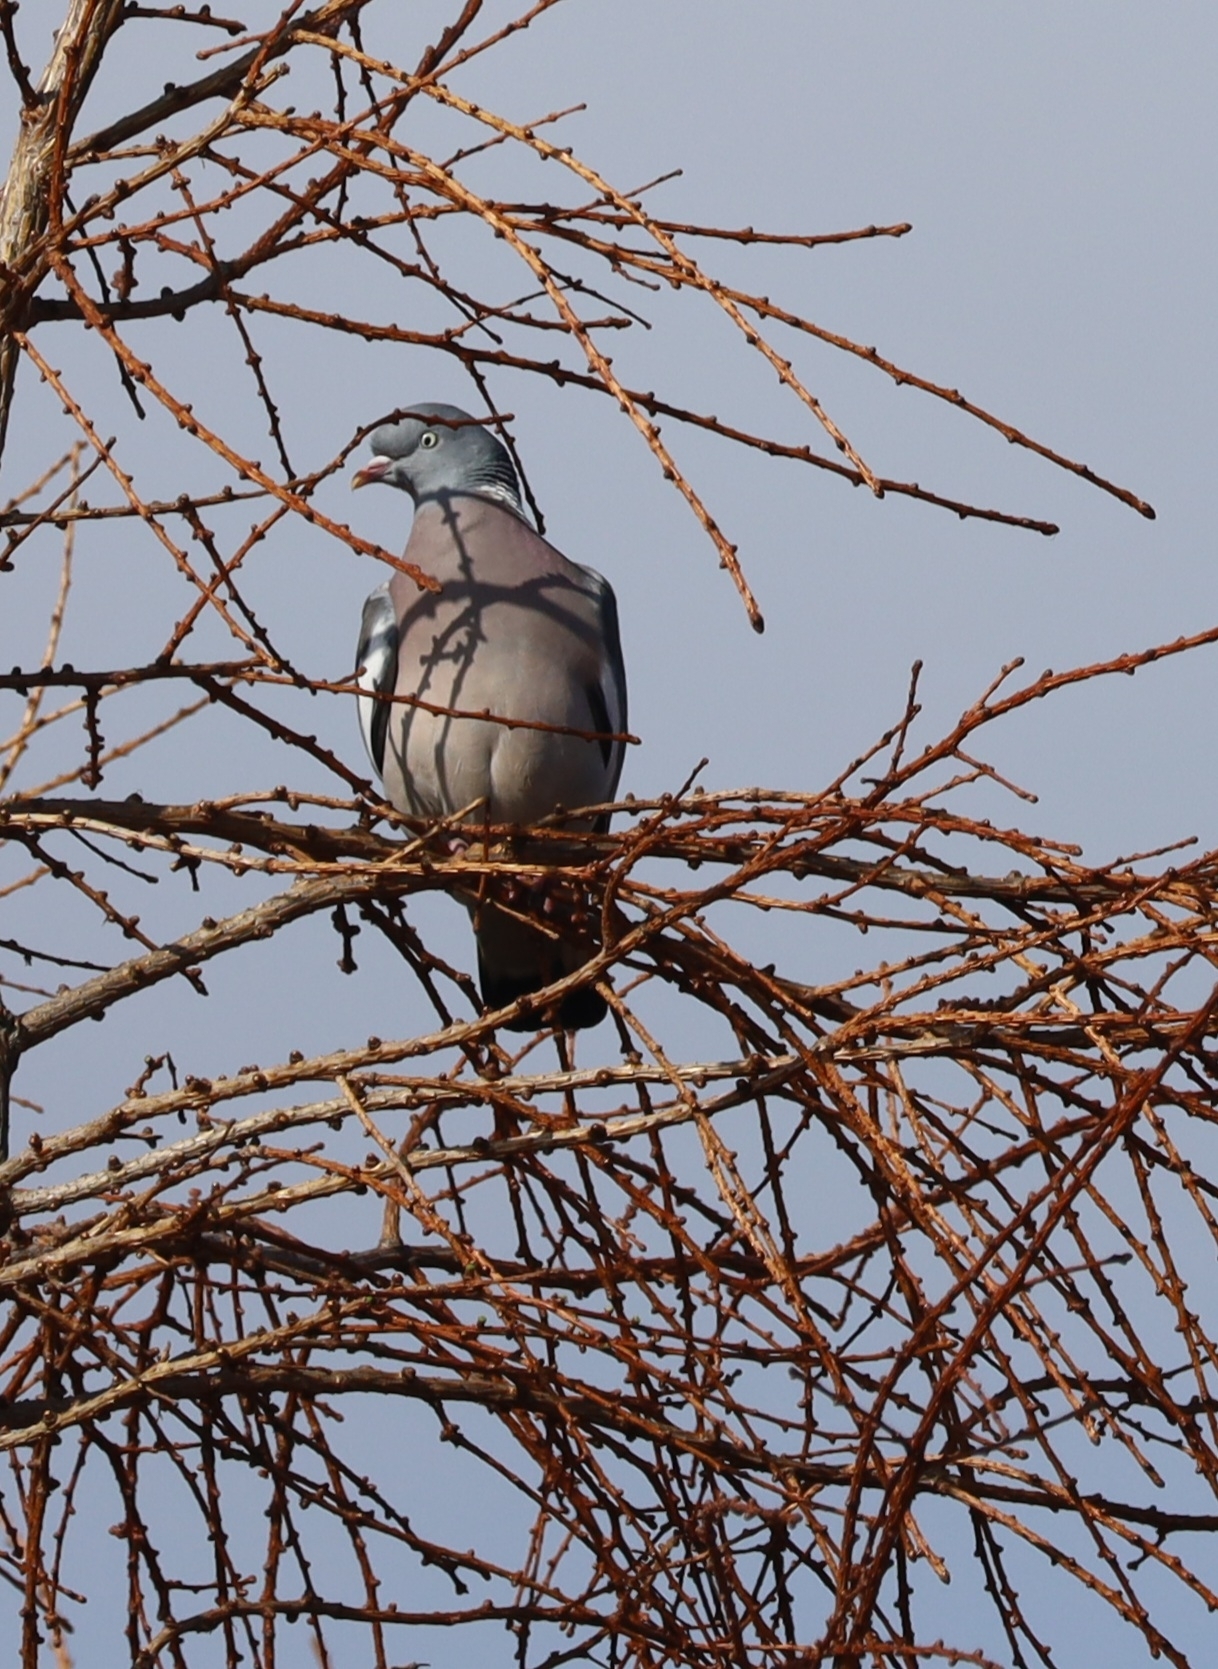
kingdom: Animalia
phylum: Chordata
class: Aves
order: Columbiformes
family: Columbidae
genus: Columba
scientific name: Columba palumbus
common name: Common wood pigeon
